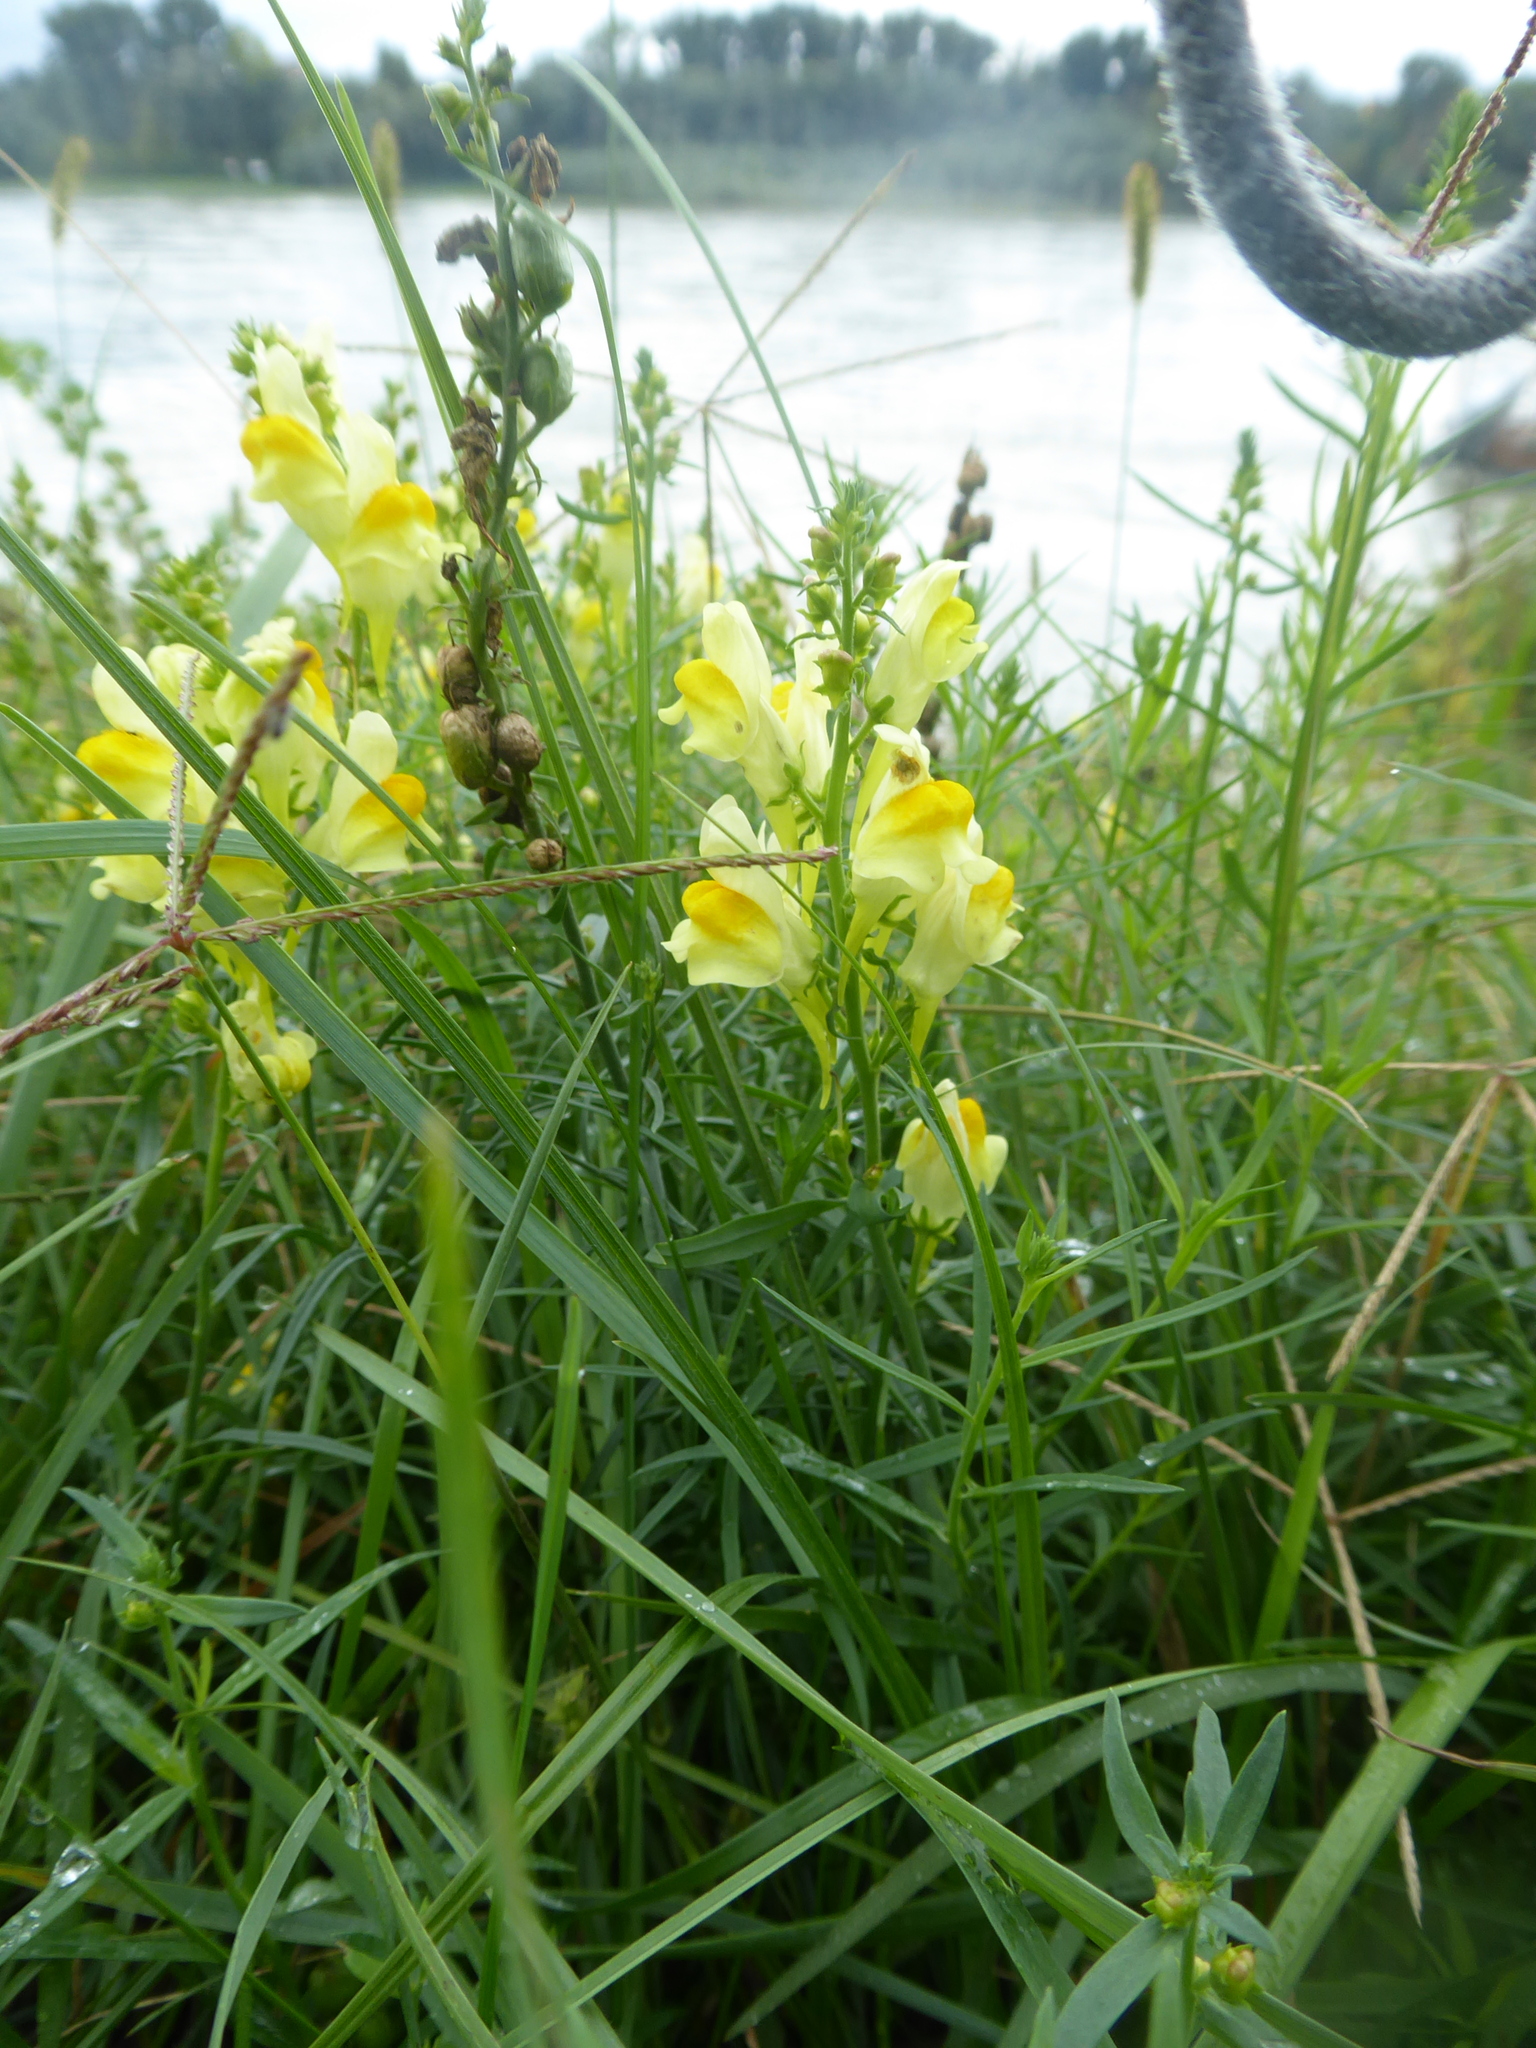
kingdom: Plantae
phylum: Tracheophyta
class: Magnoliopsida
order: Lamiales
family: Plantaginaceae
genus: Linaria
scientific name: Linaria vulgaris
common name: Butter and eggs
